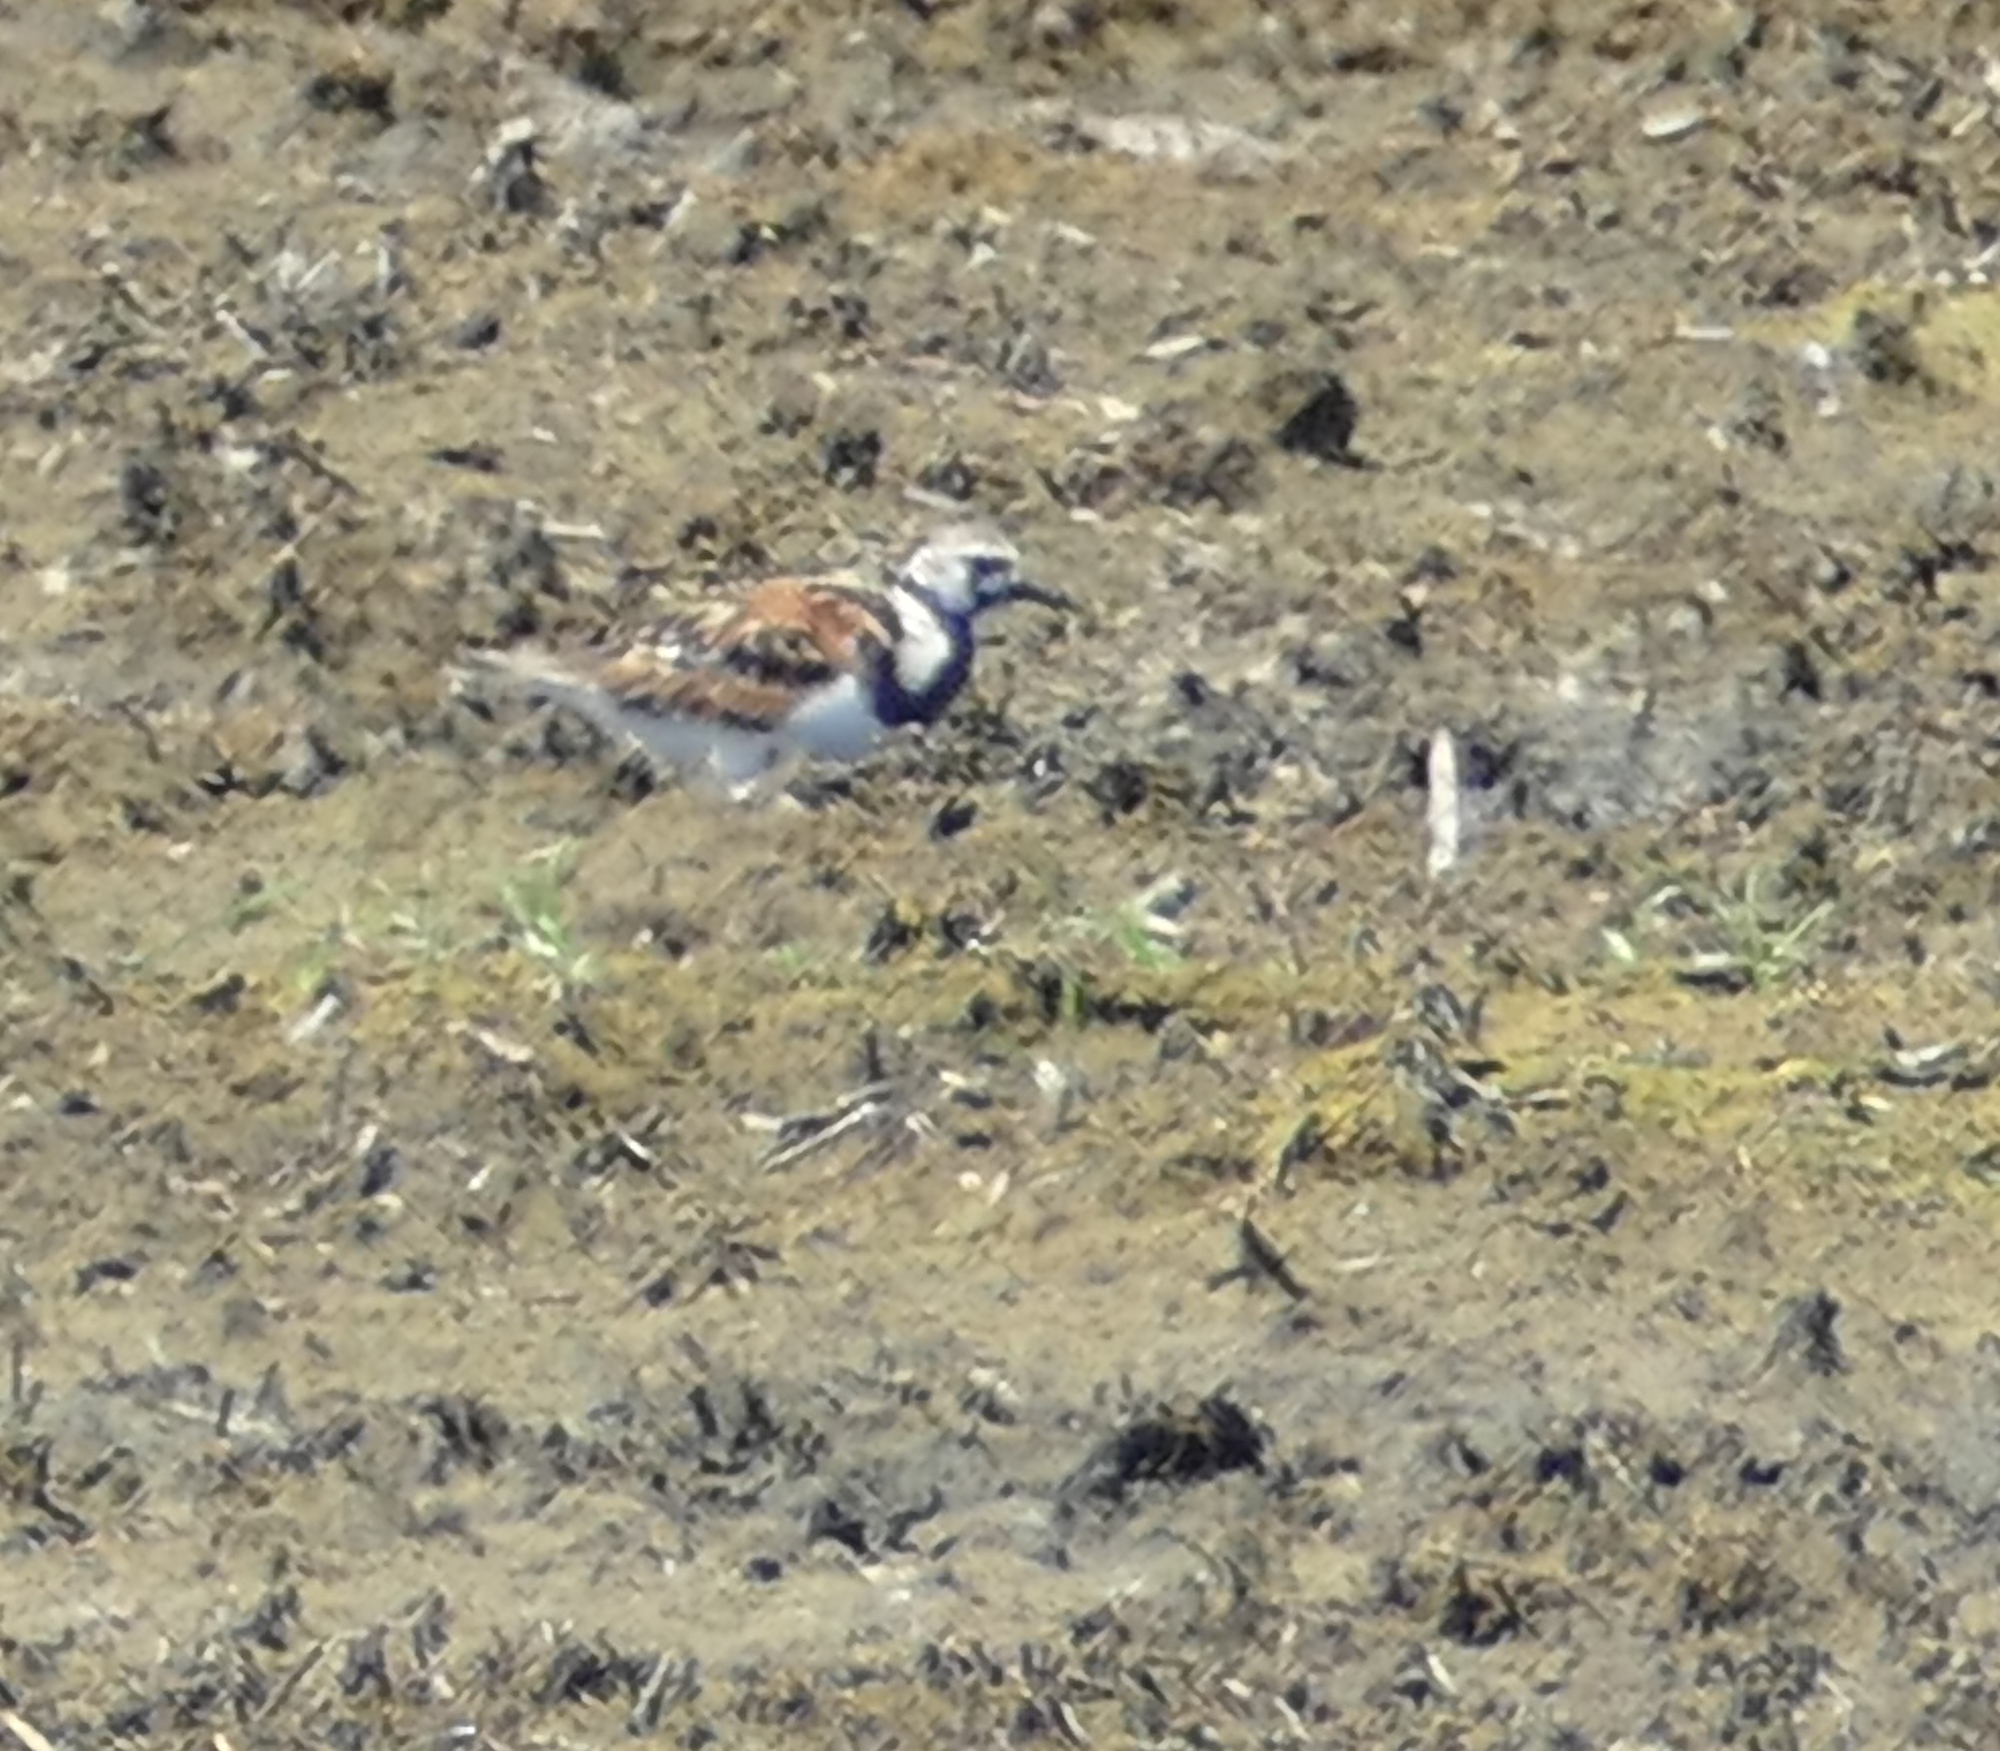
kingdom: Animalia
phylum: Chordata
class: Aves
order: Charadriiformes
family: Scolopacidae
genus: Arenaria
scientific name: Arenaria interpres
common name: Ruddy turnstone
